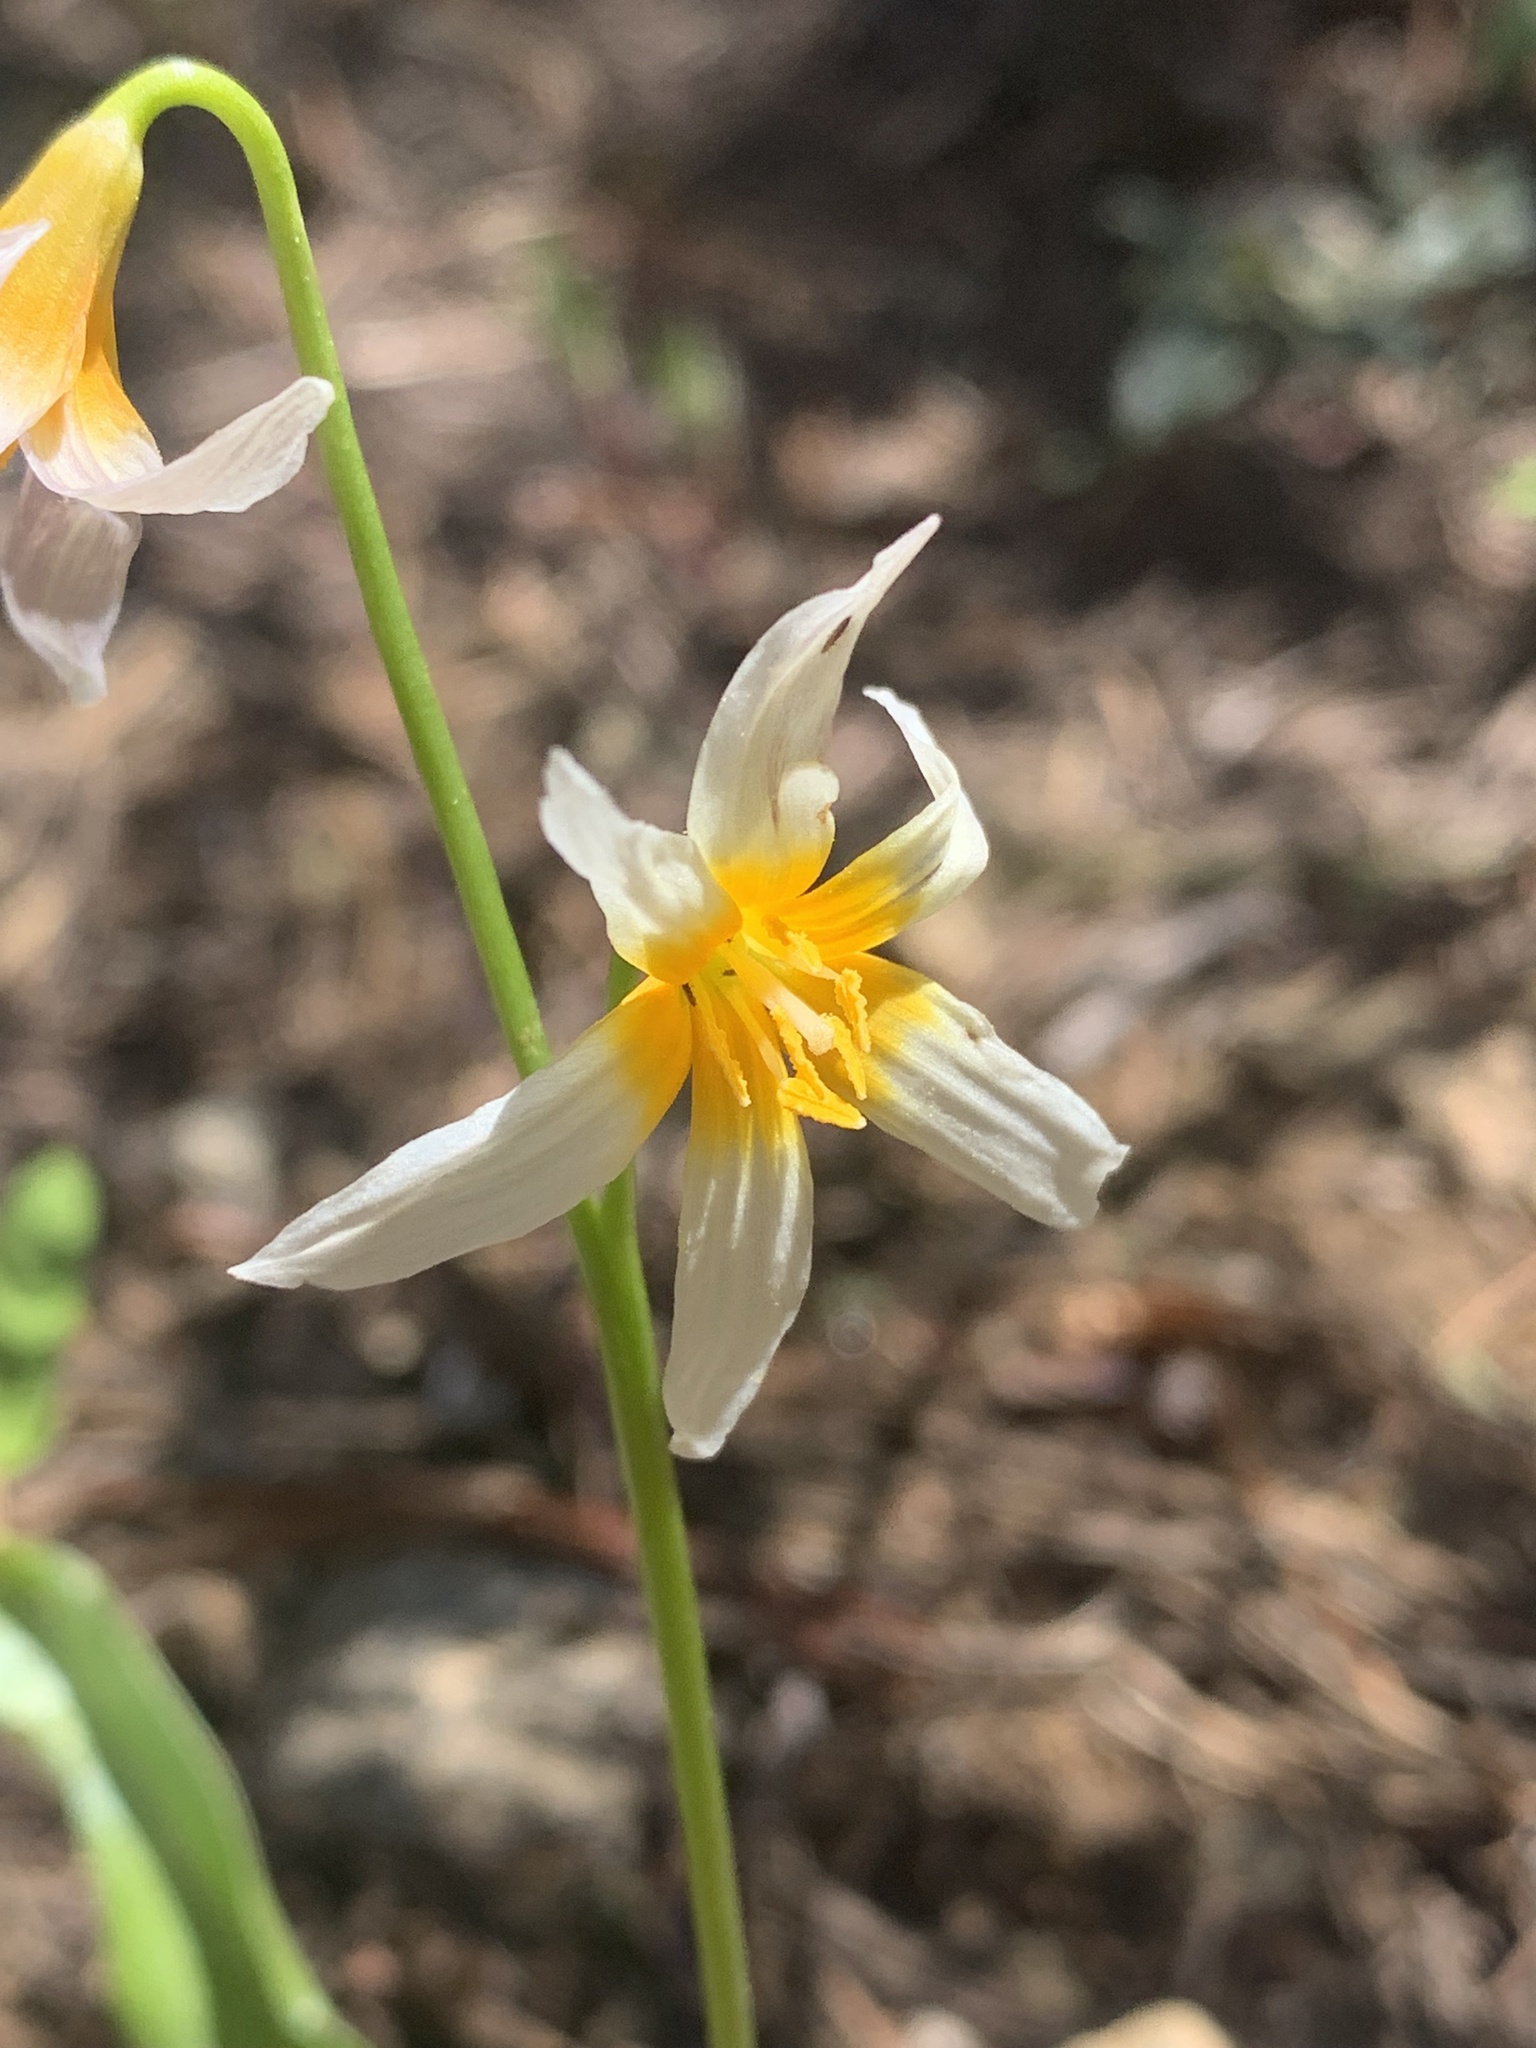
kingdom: Plantae
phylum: Tracheophyta
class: Liliopsida
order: Liliales
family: Liliaceae
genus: Erythronium
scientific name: Erythronium purpurascens
